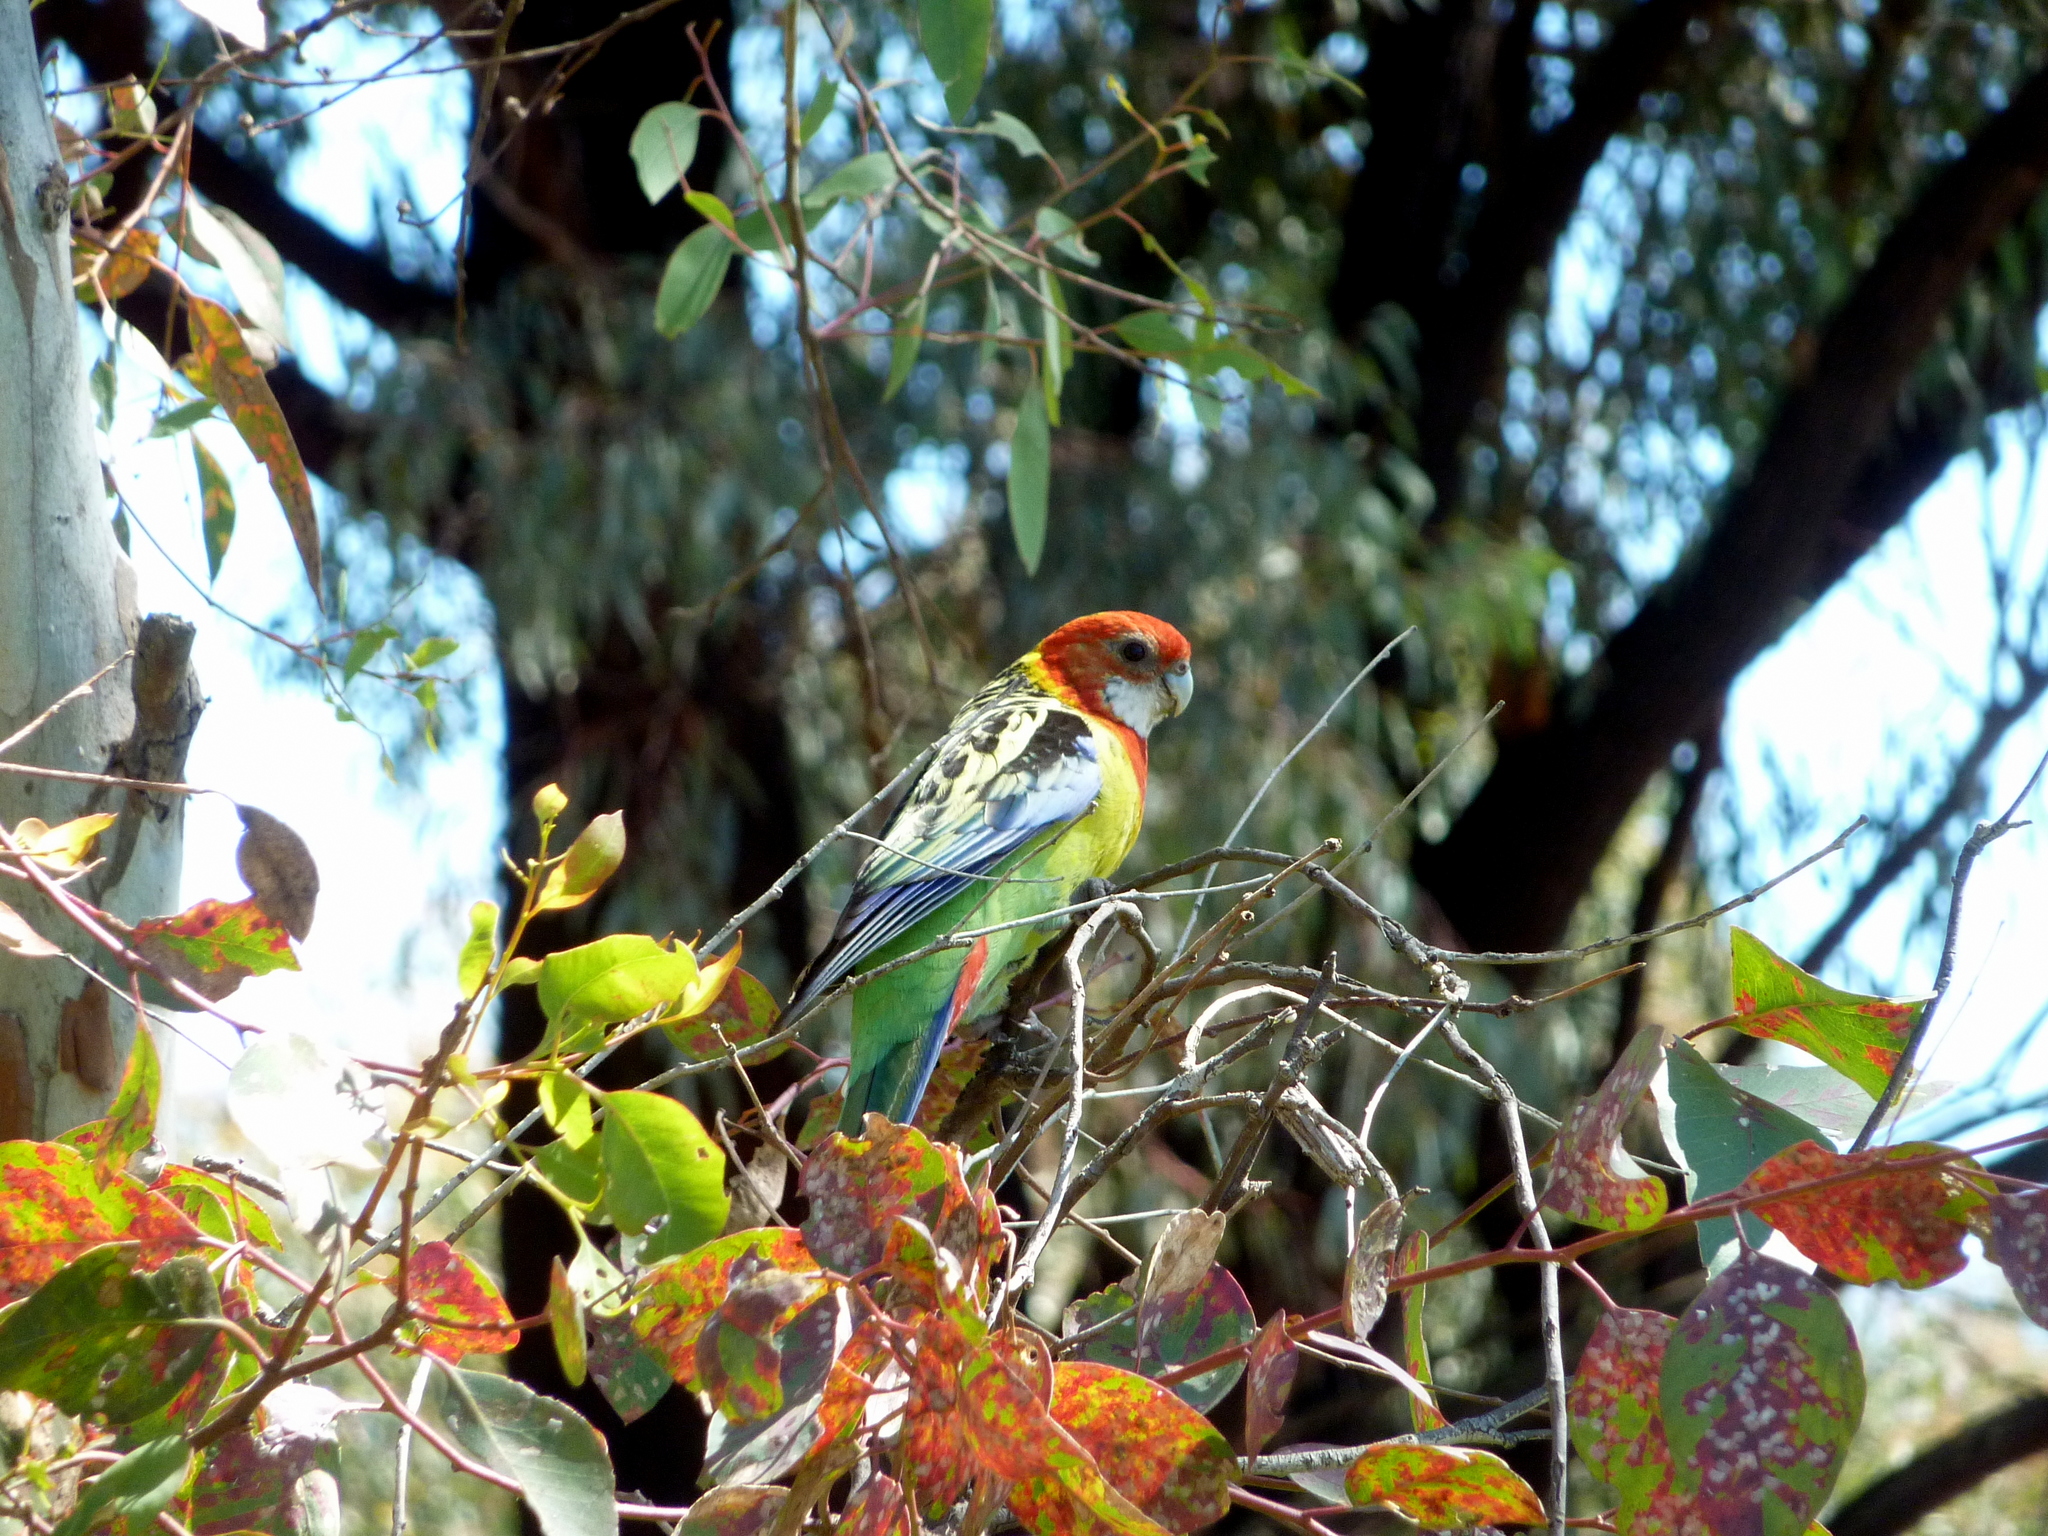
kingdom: Animalia
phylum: Chordata
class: Aves
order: Psittaciformes
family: Psittacidae
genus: Platycercus
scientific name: Platycercus eximius
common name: Eastern rosella
